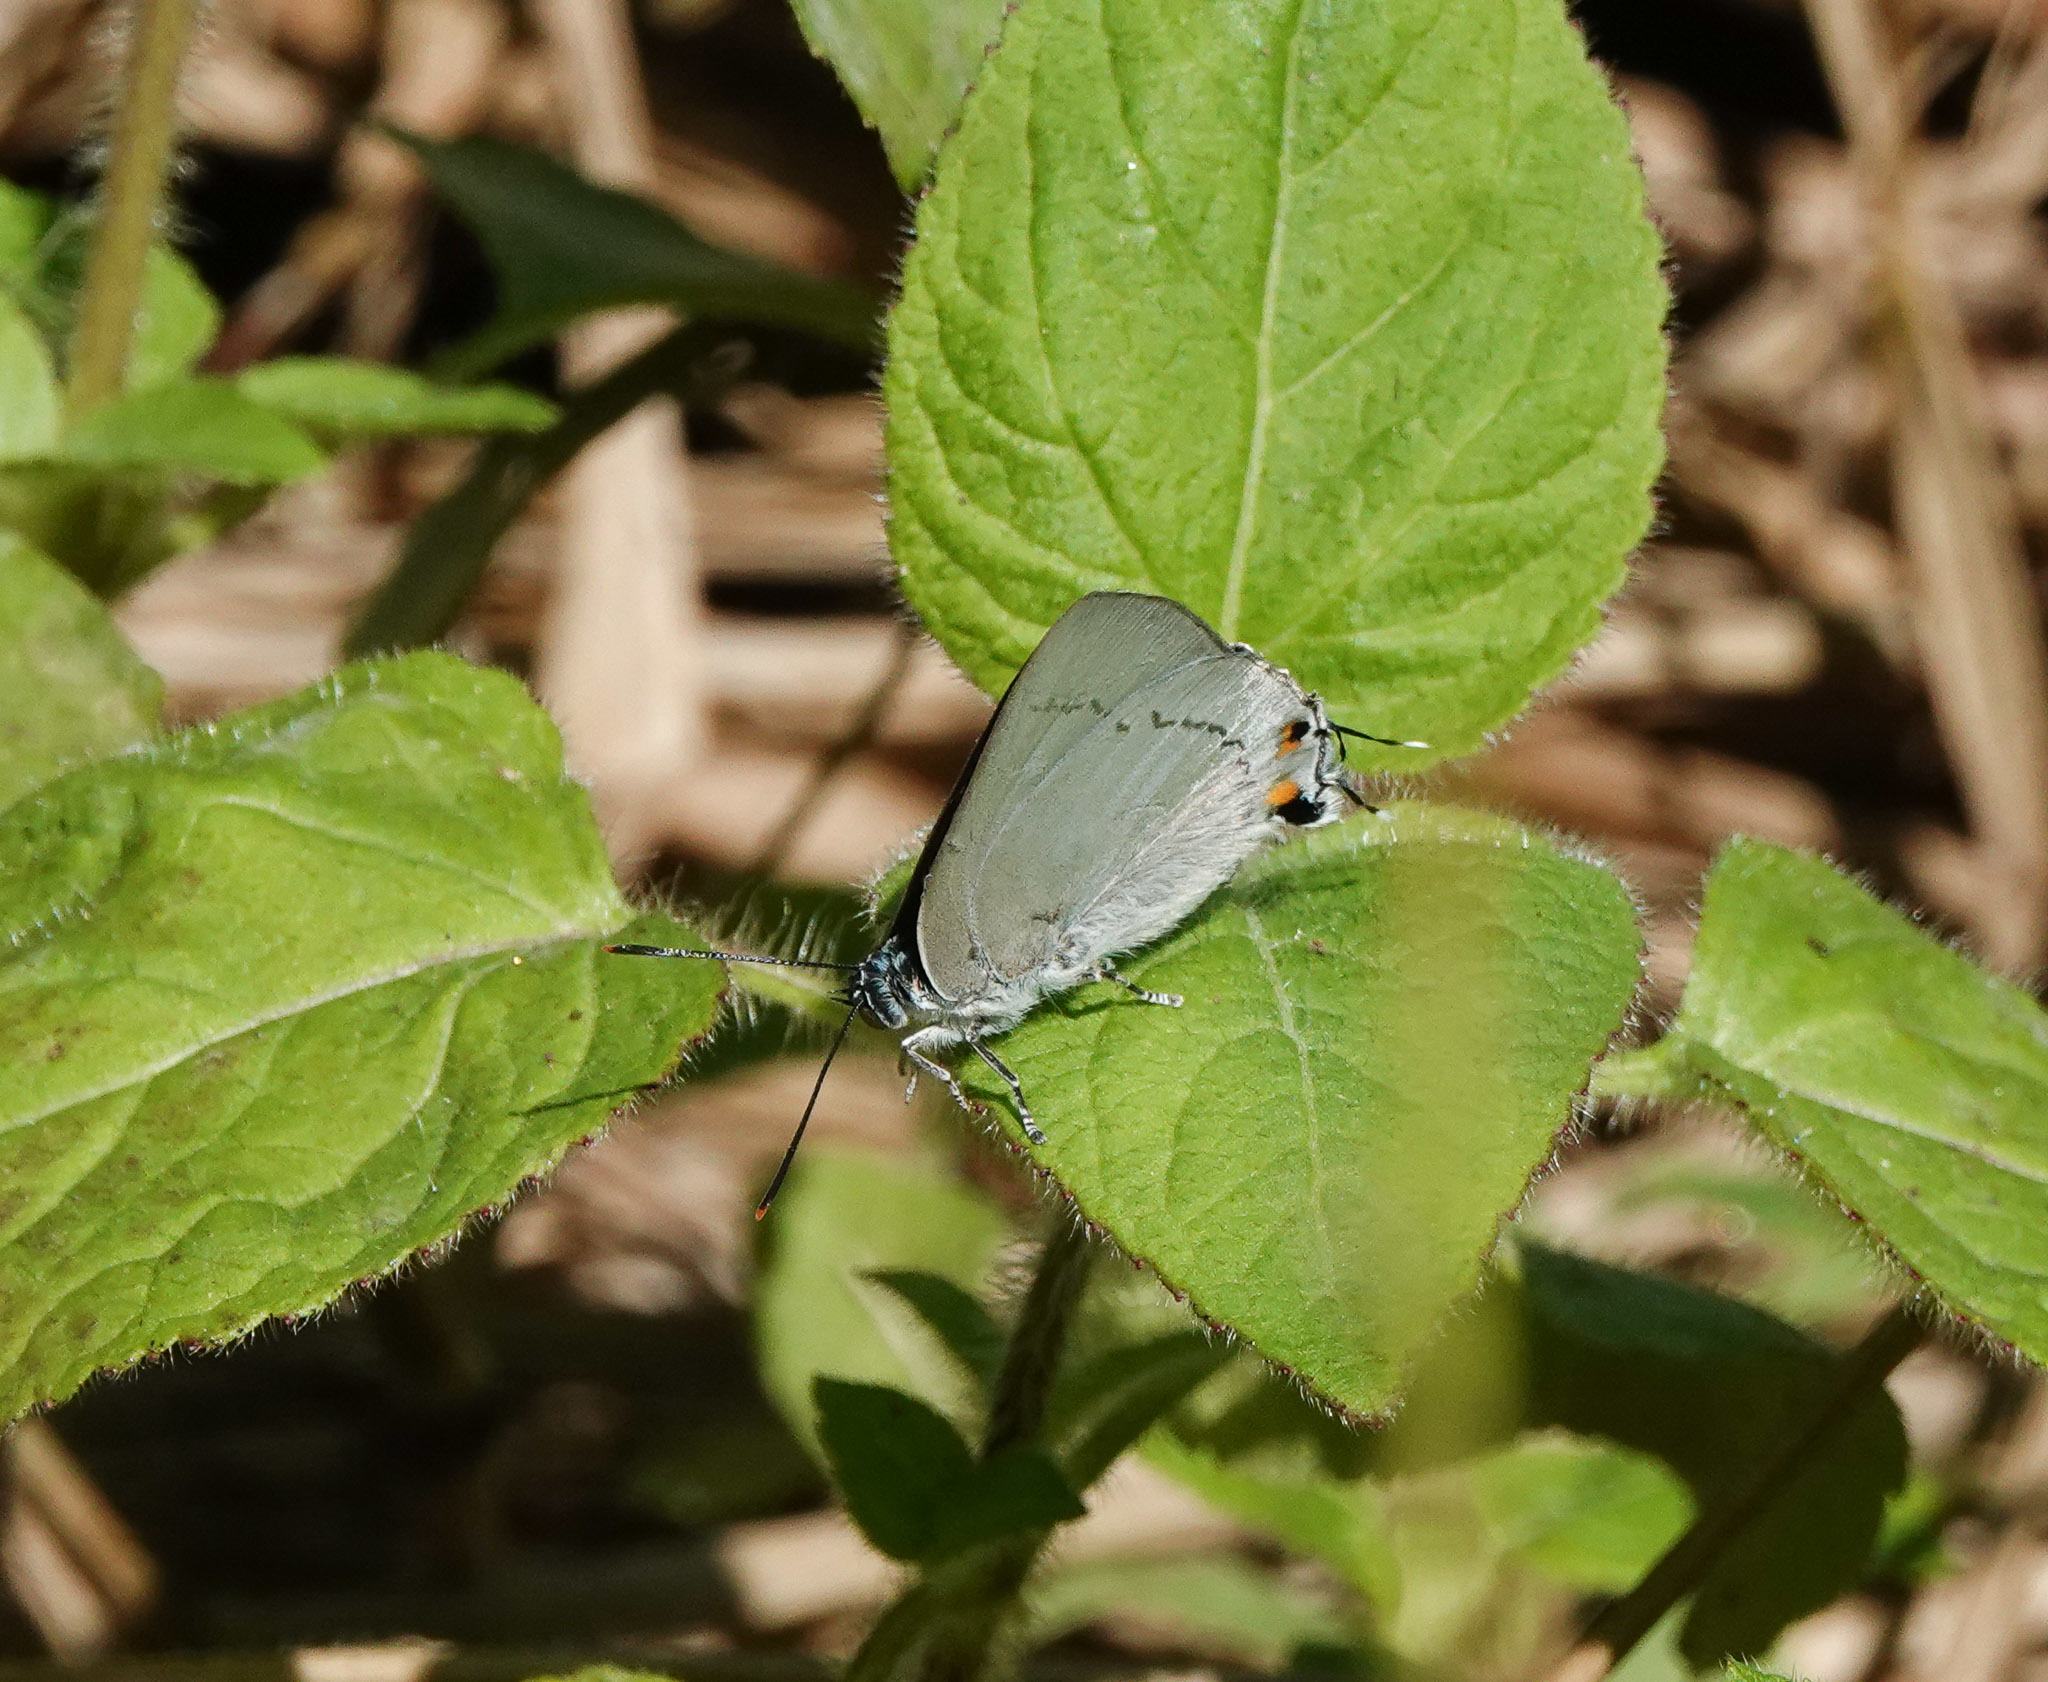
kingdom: Animalia
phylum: Arthropoda
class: Insecta
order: Lepidoptera
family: Lycaenidae
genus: Hypolycaena
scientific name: Hypolycaena erylus
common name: Common tit
